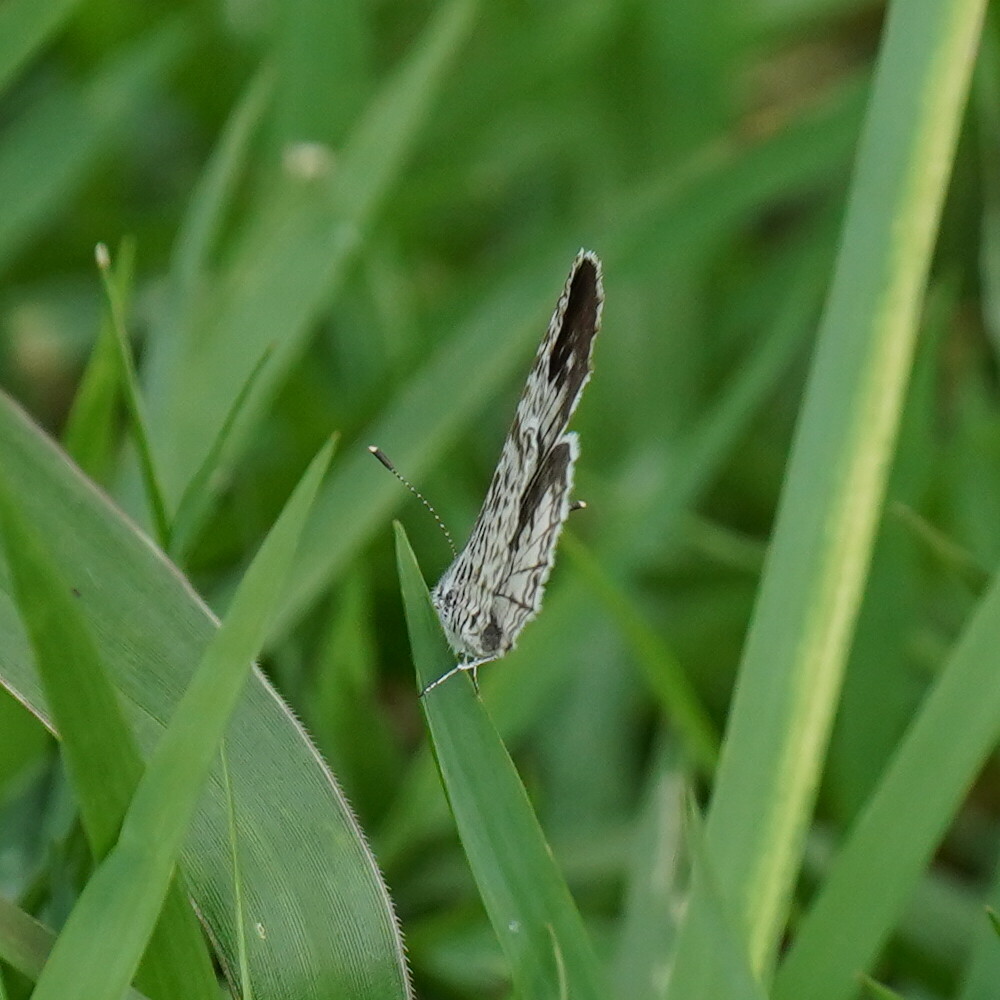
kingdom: Animalia
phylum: Arthropoda
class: Insecta
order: Lepidoptera
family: Lycaenidae
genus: Leptotes
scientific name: Leptotes cassius
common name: Cassius blue
